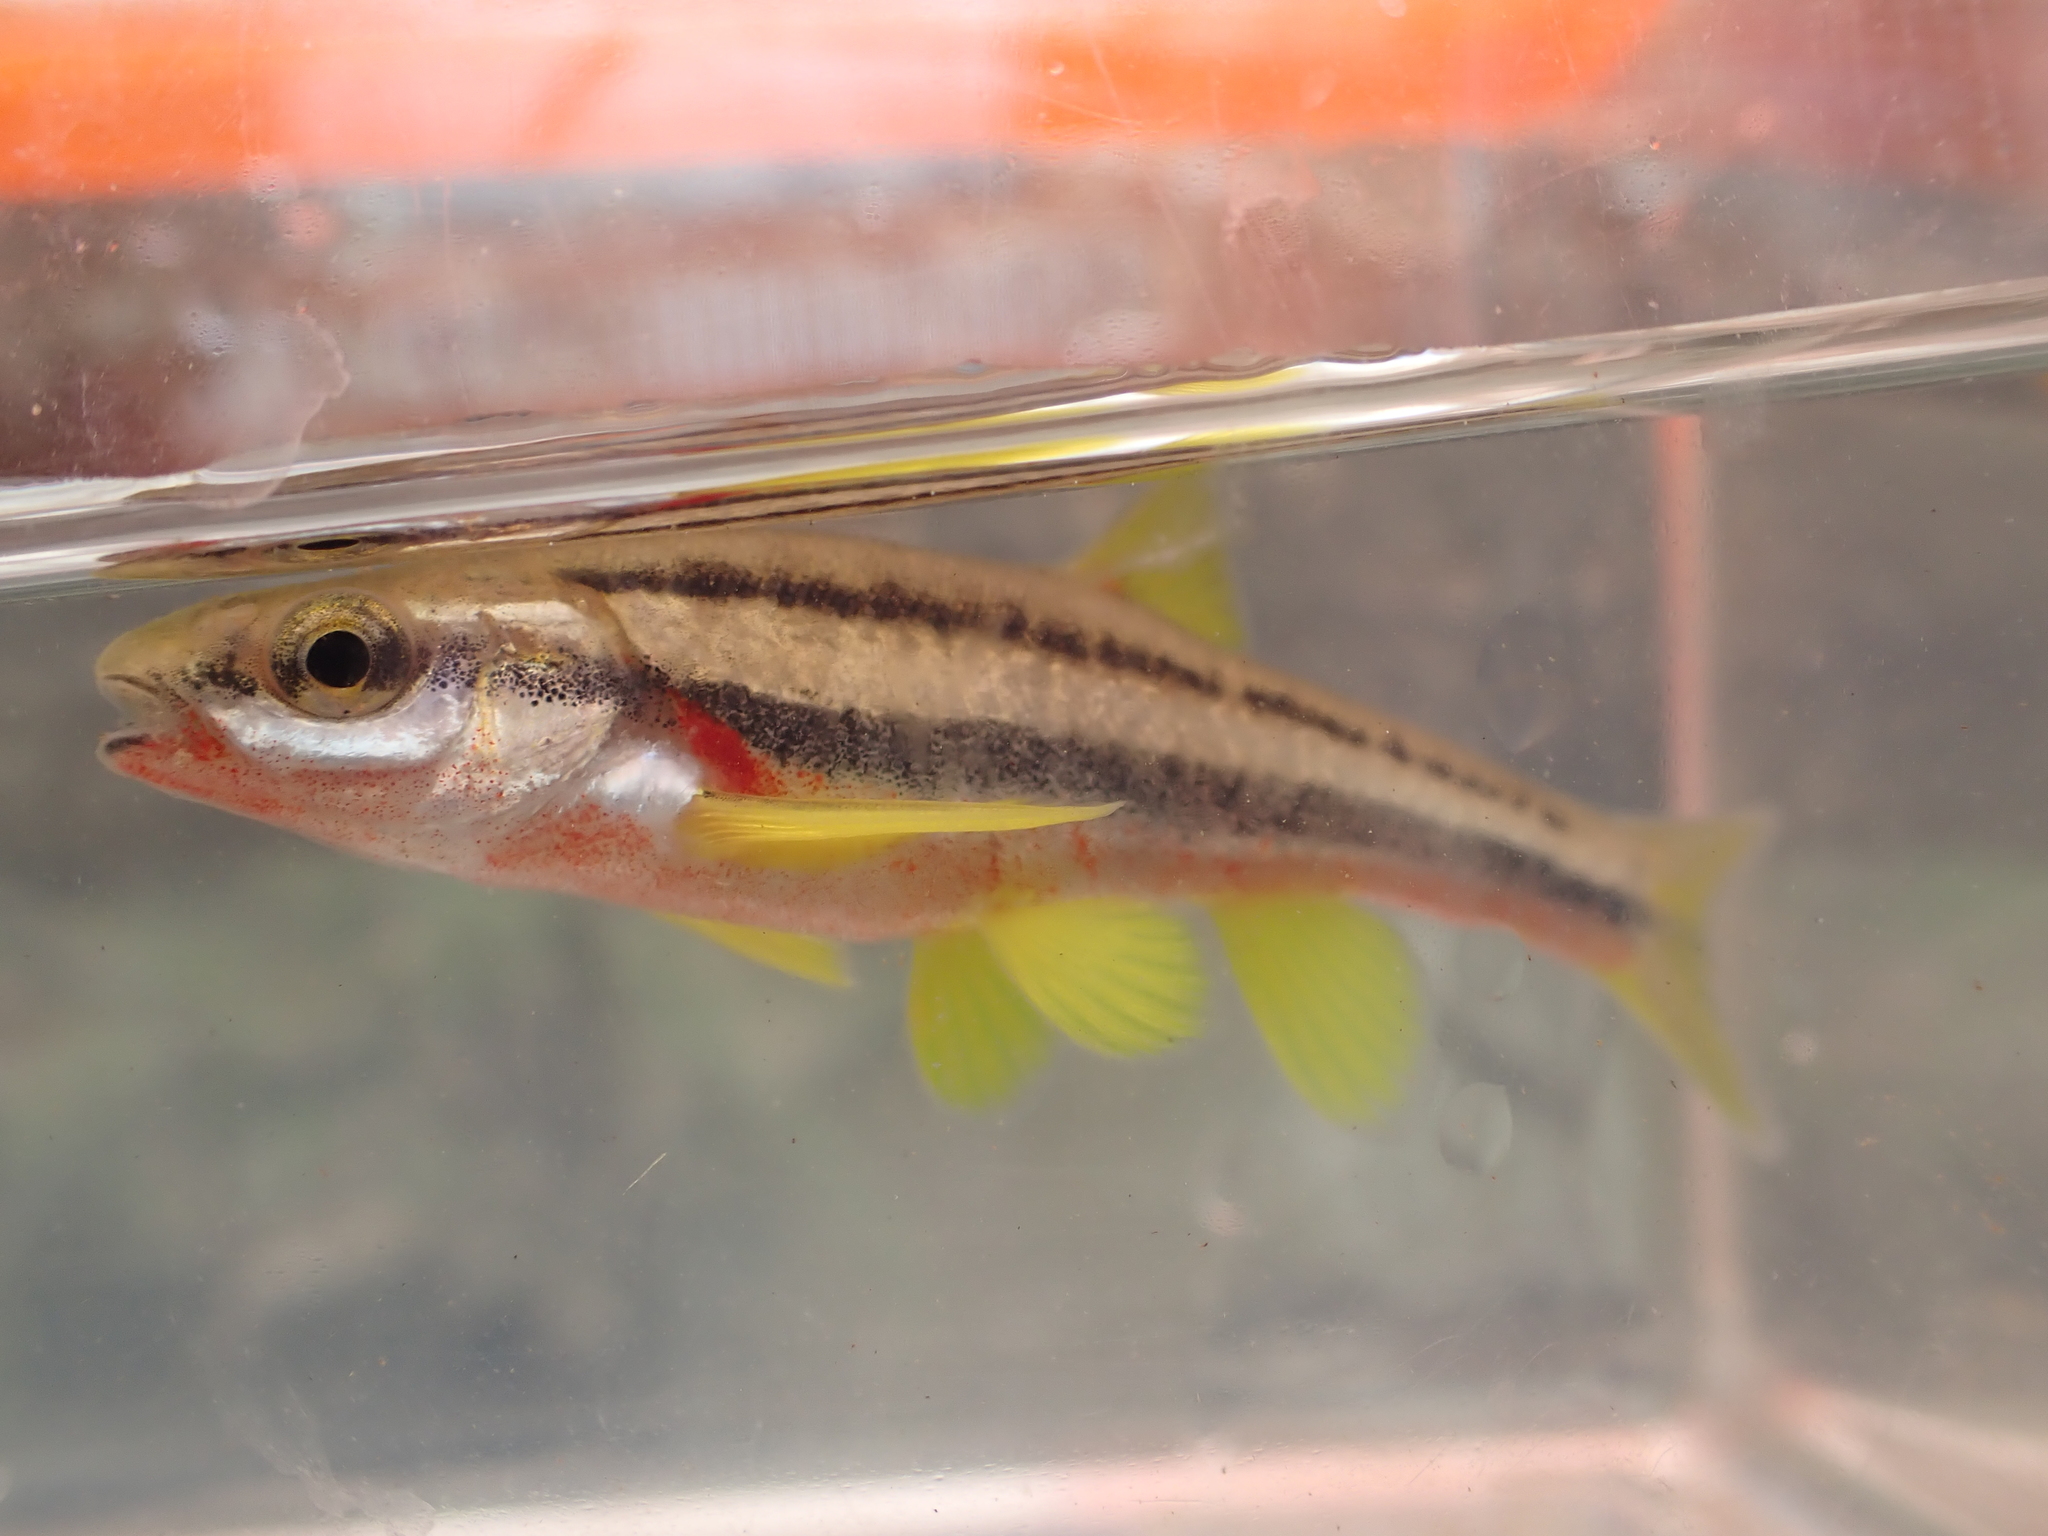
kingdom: Animalia
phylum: Chordata
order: Cypriniformes
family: Cyprinidae
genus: Chrosomus
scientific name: Chrosomus erythrogaster
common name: Southern redbelly dace
